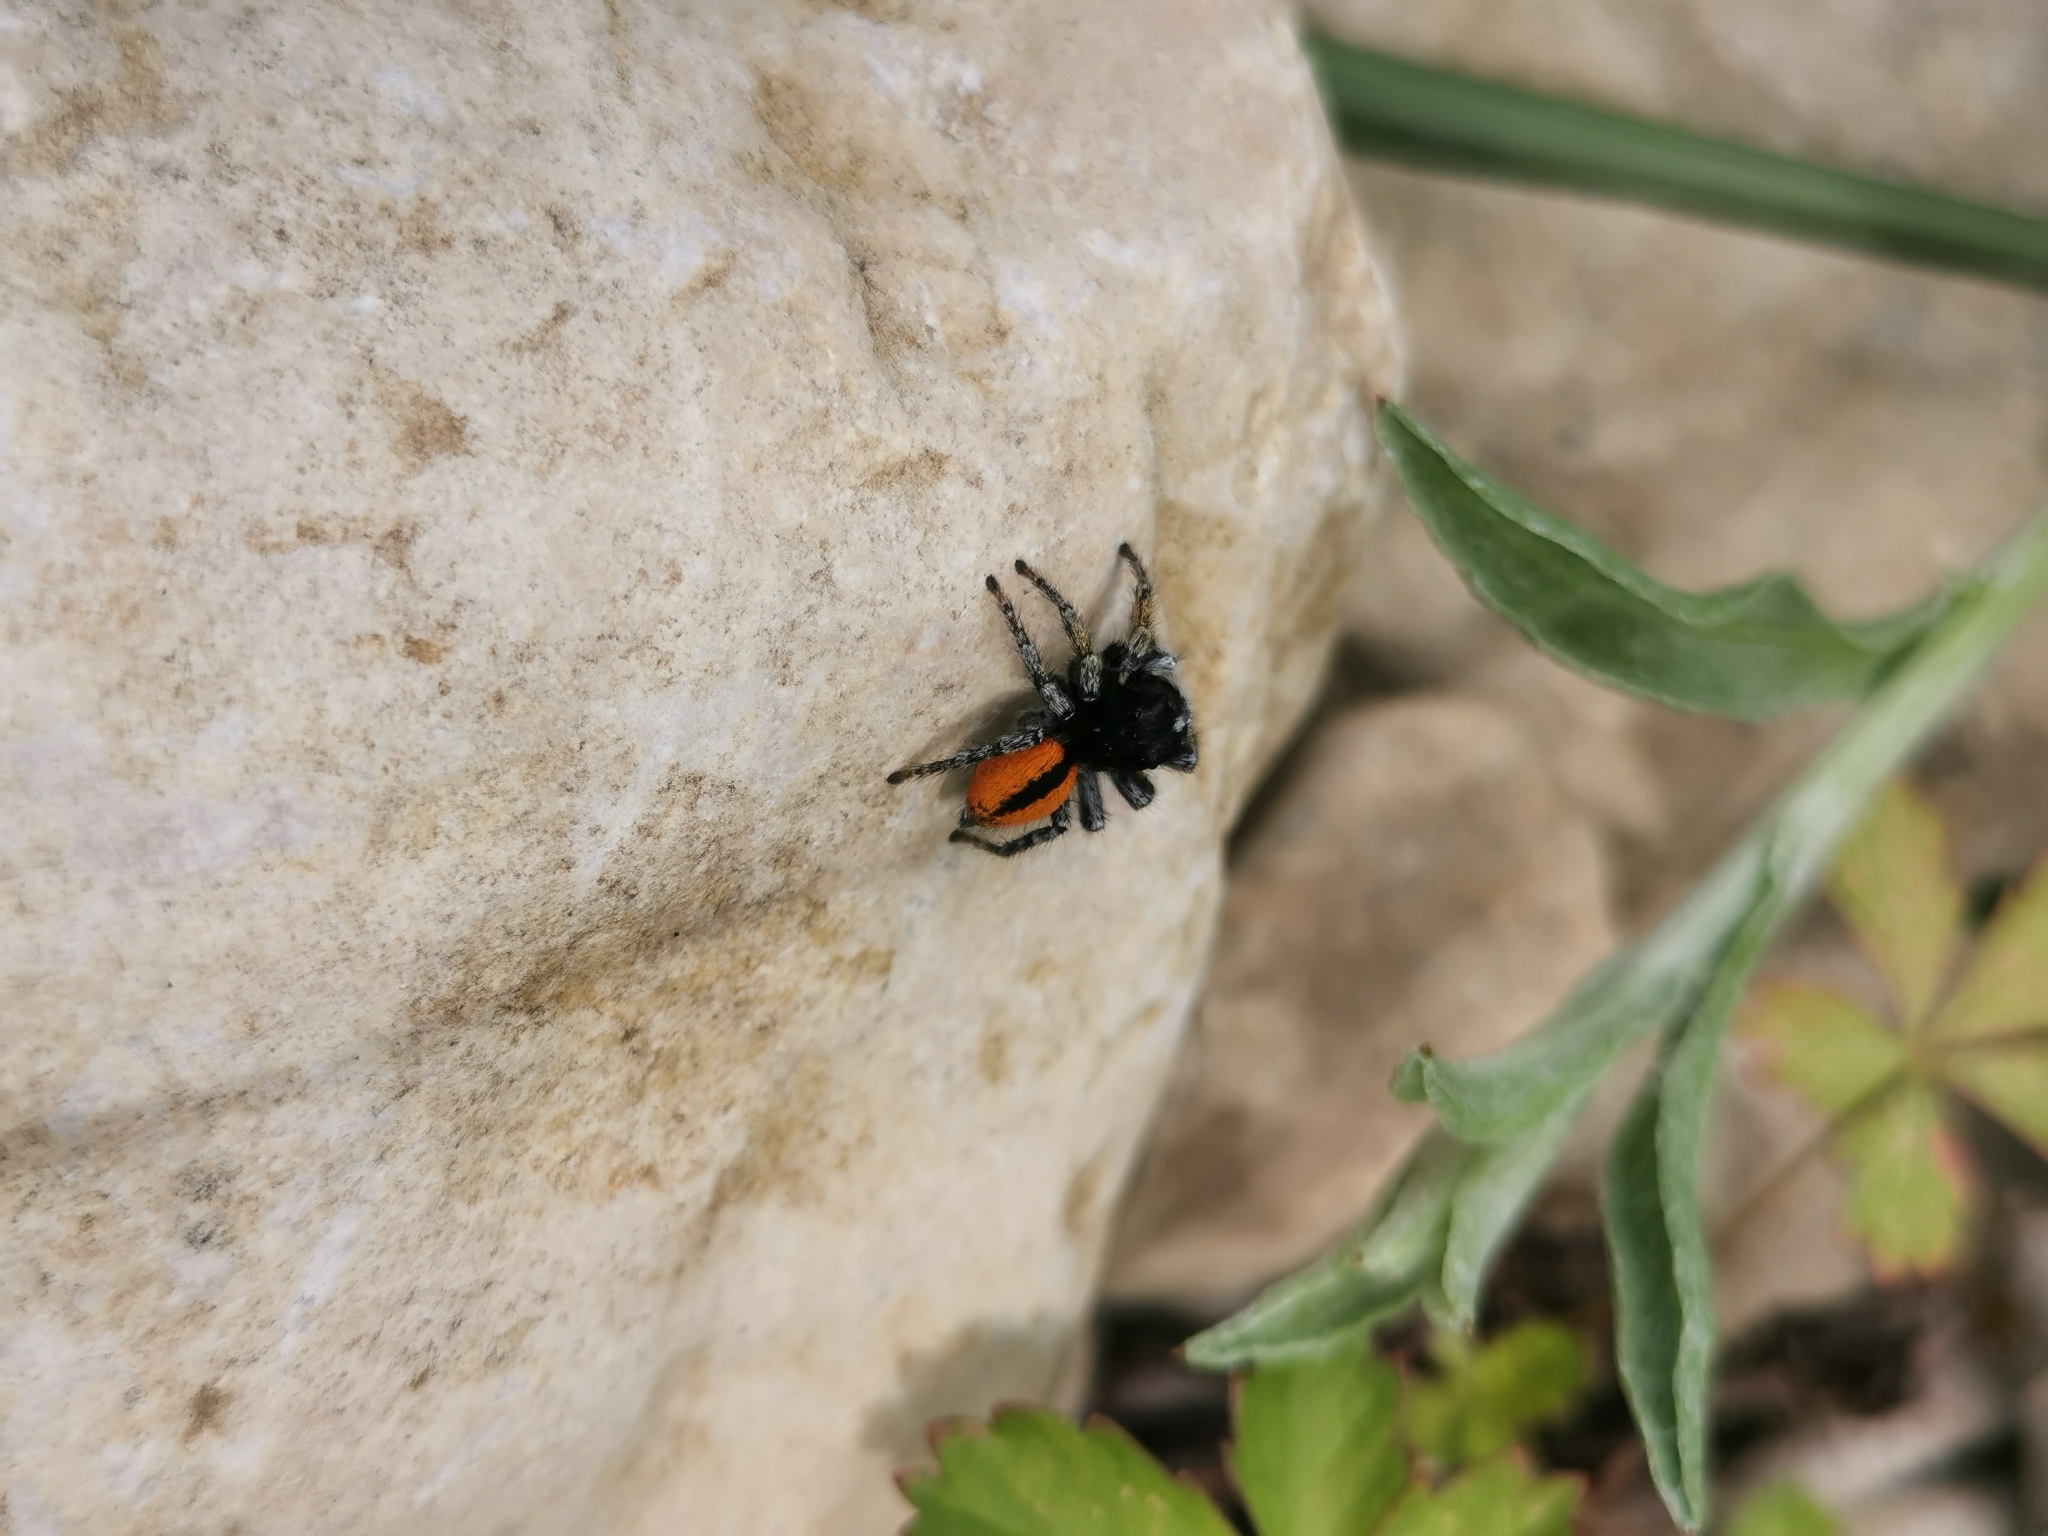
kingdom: Animalia
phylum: Arthropoda
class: Arachnida
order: Araneae
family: Salticidae
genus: Philaeus
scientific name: Philaeus chrysops
